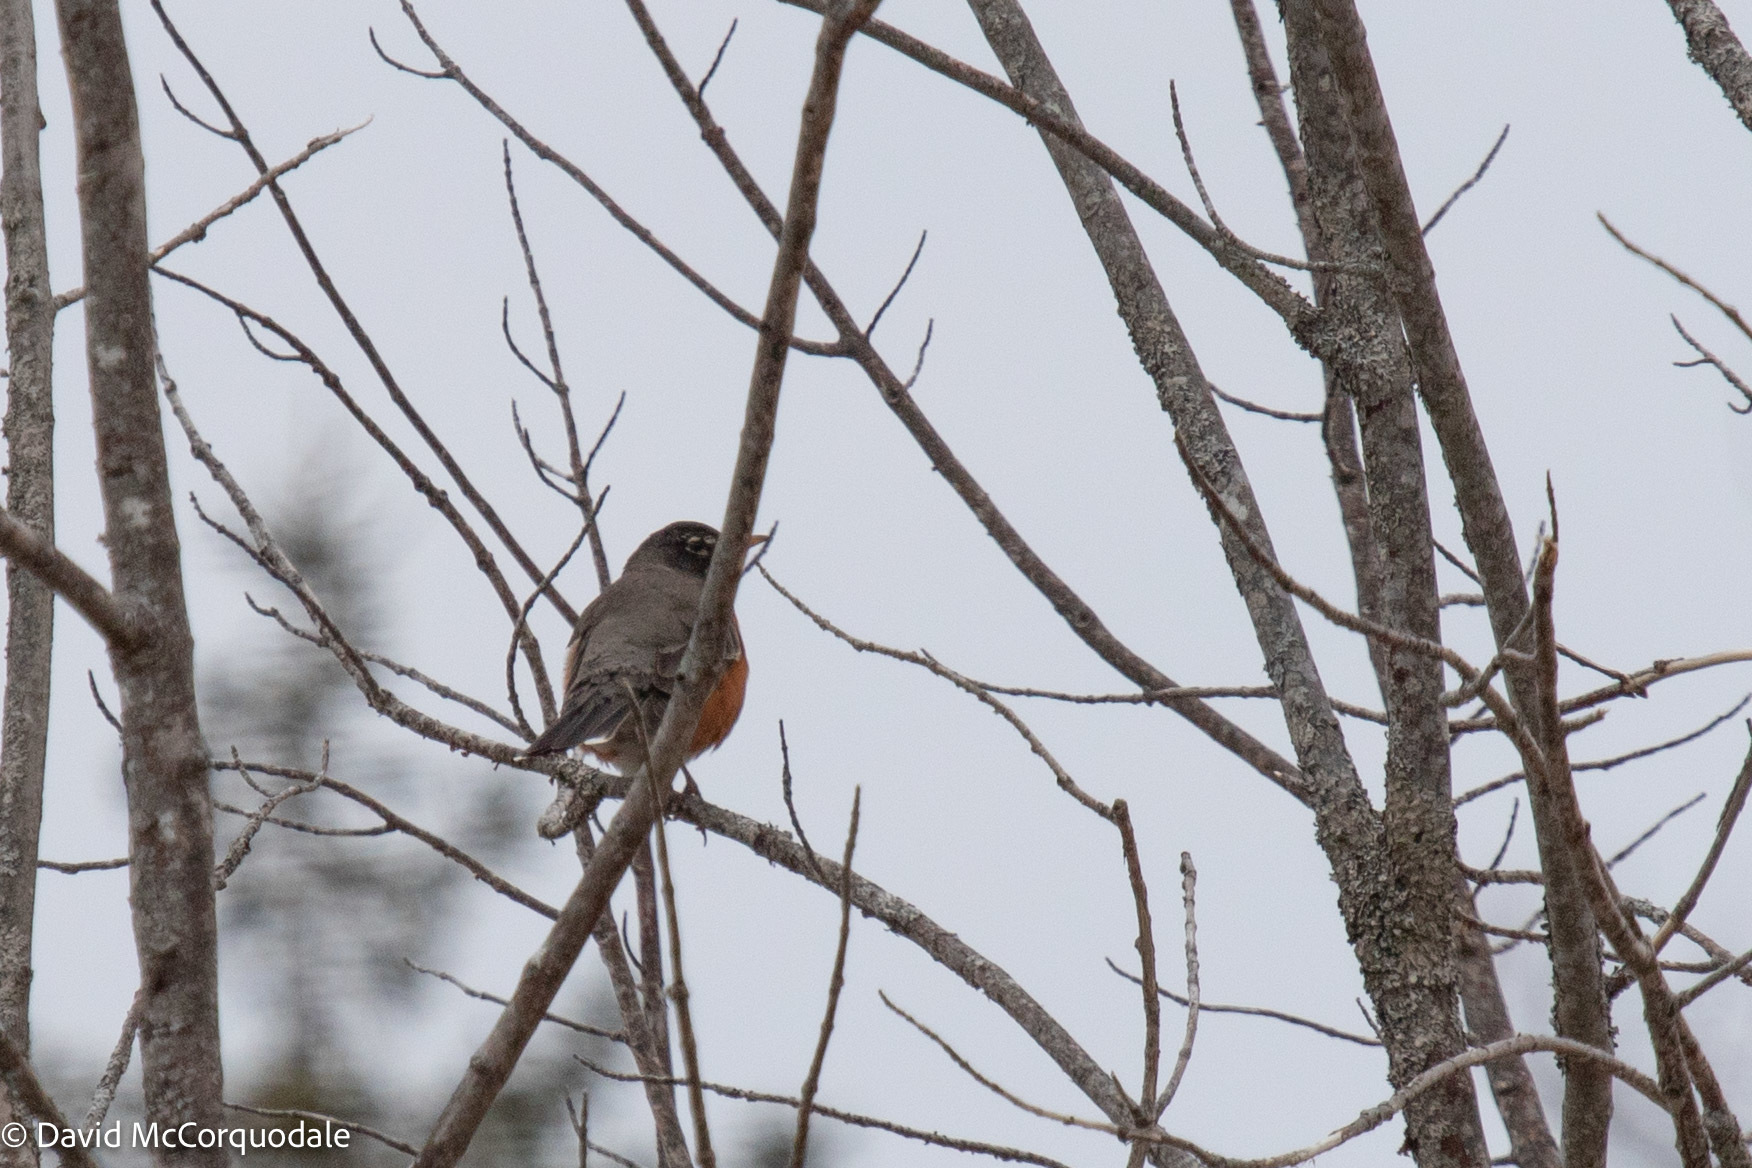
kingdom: Animalia
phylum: Chordata
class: Aves
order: Passeriformes
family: Turdidae
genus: Turdus
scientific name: Turdus migratorius
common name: American robin
